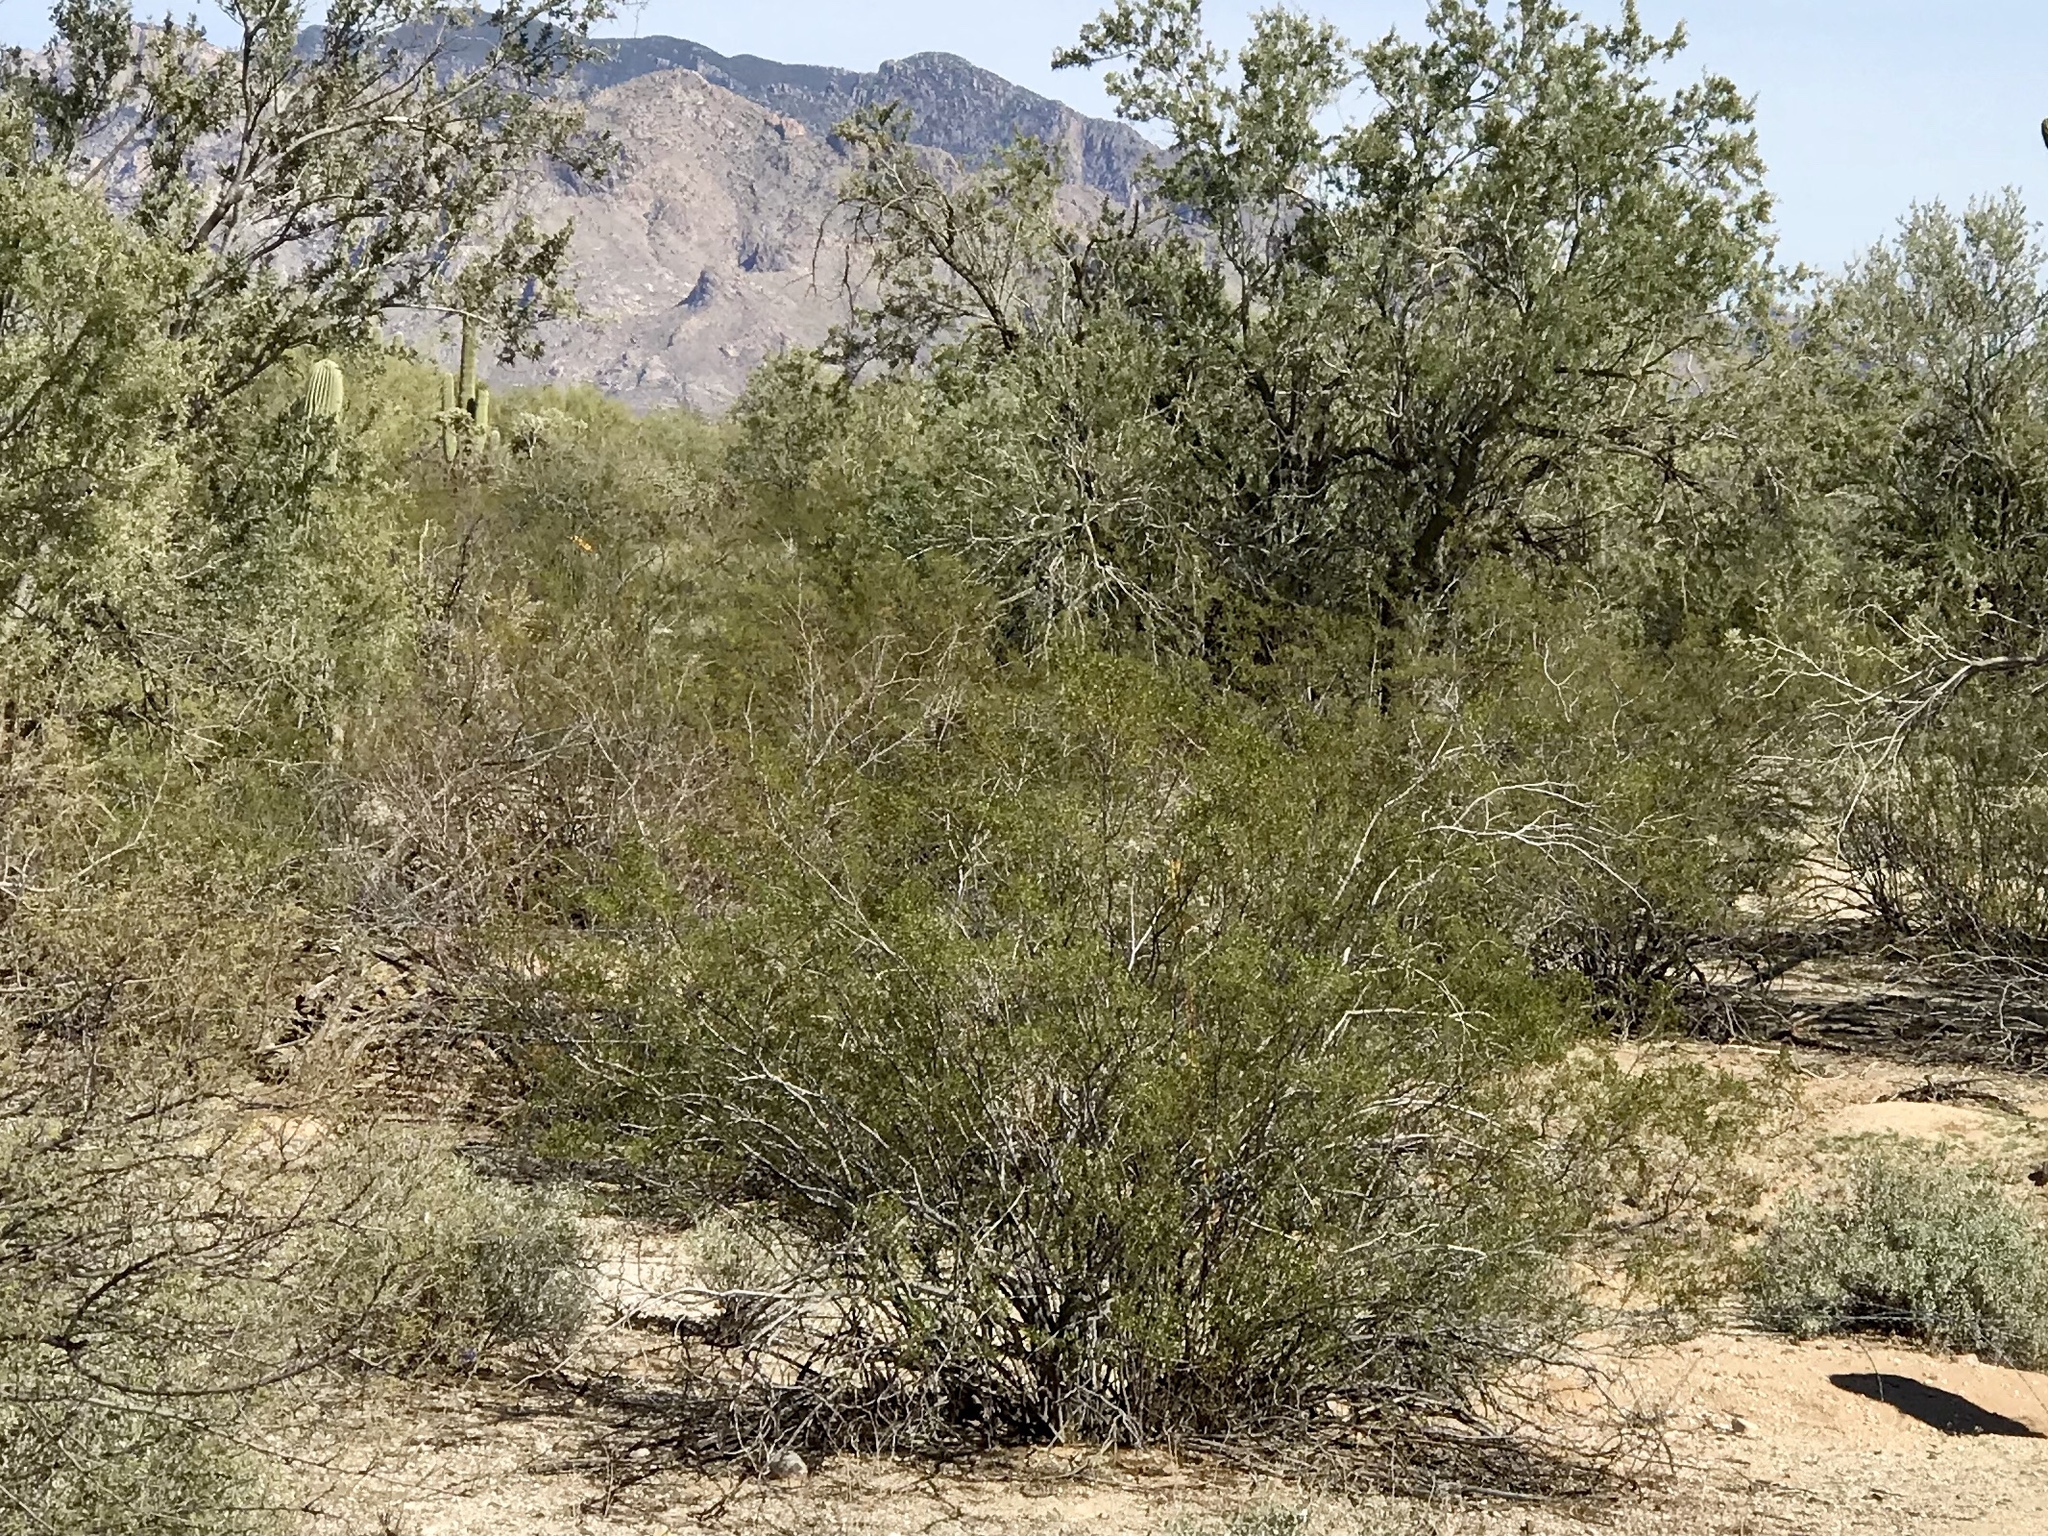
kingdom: Plantae
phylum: Tracheophyta
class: Magnoliopsida
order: Zygophyllales
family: Zygophyllaceae
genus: Larrea
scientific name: Larrea tridentata
